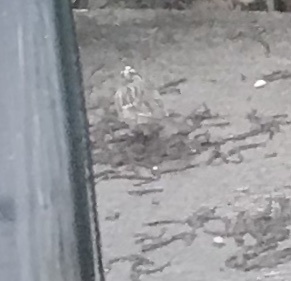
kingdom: Animalia
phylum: Chordata
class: Aves
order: Passeriformes
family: Passerellidae
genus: Zonotrichia
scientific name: Zonotrichia leucophrys
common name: White-crowned sparrow
